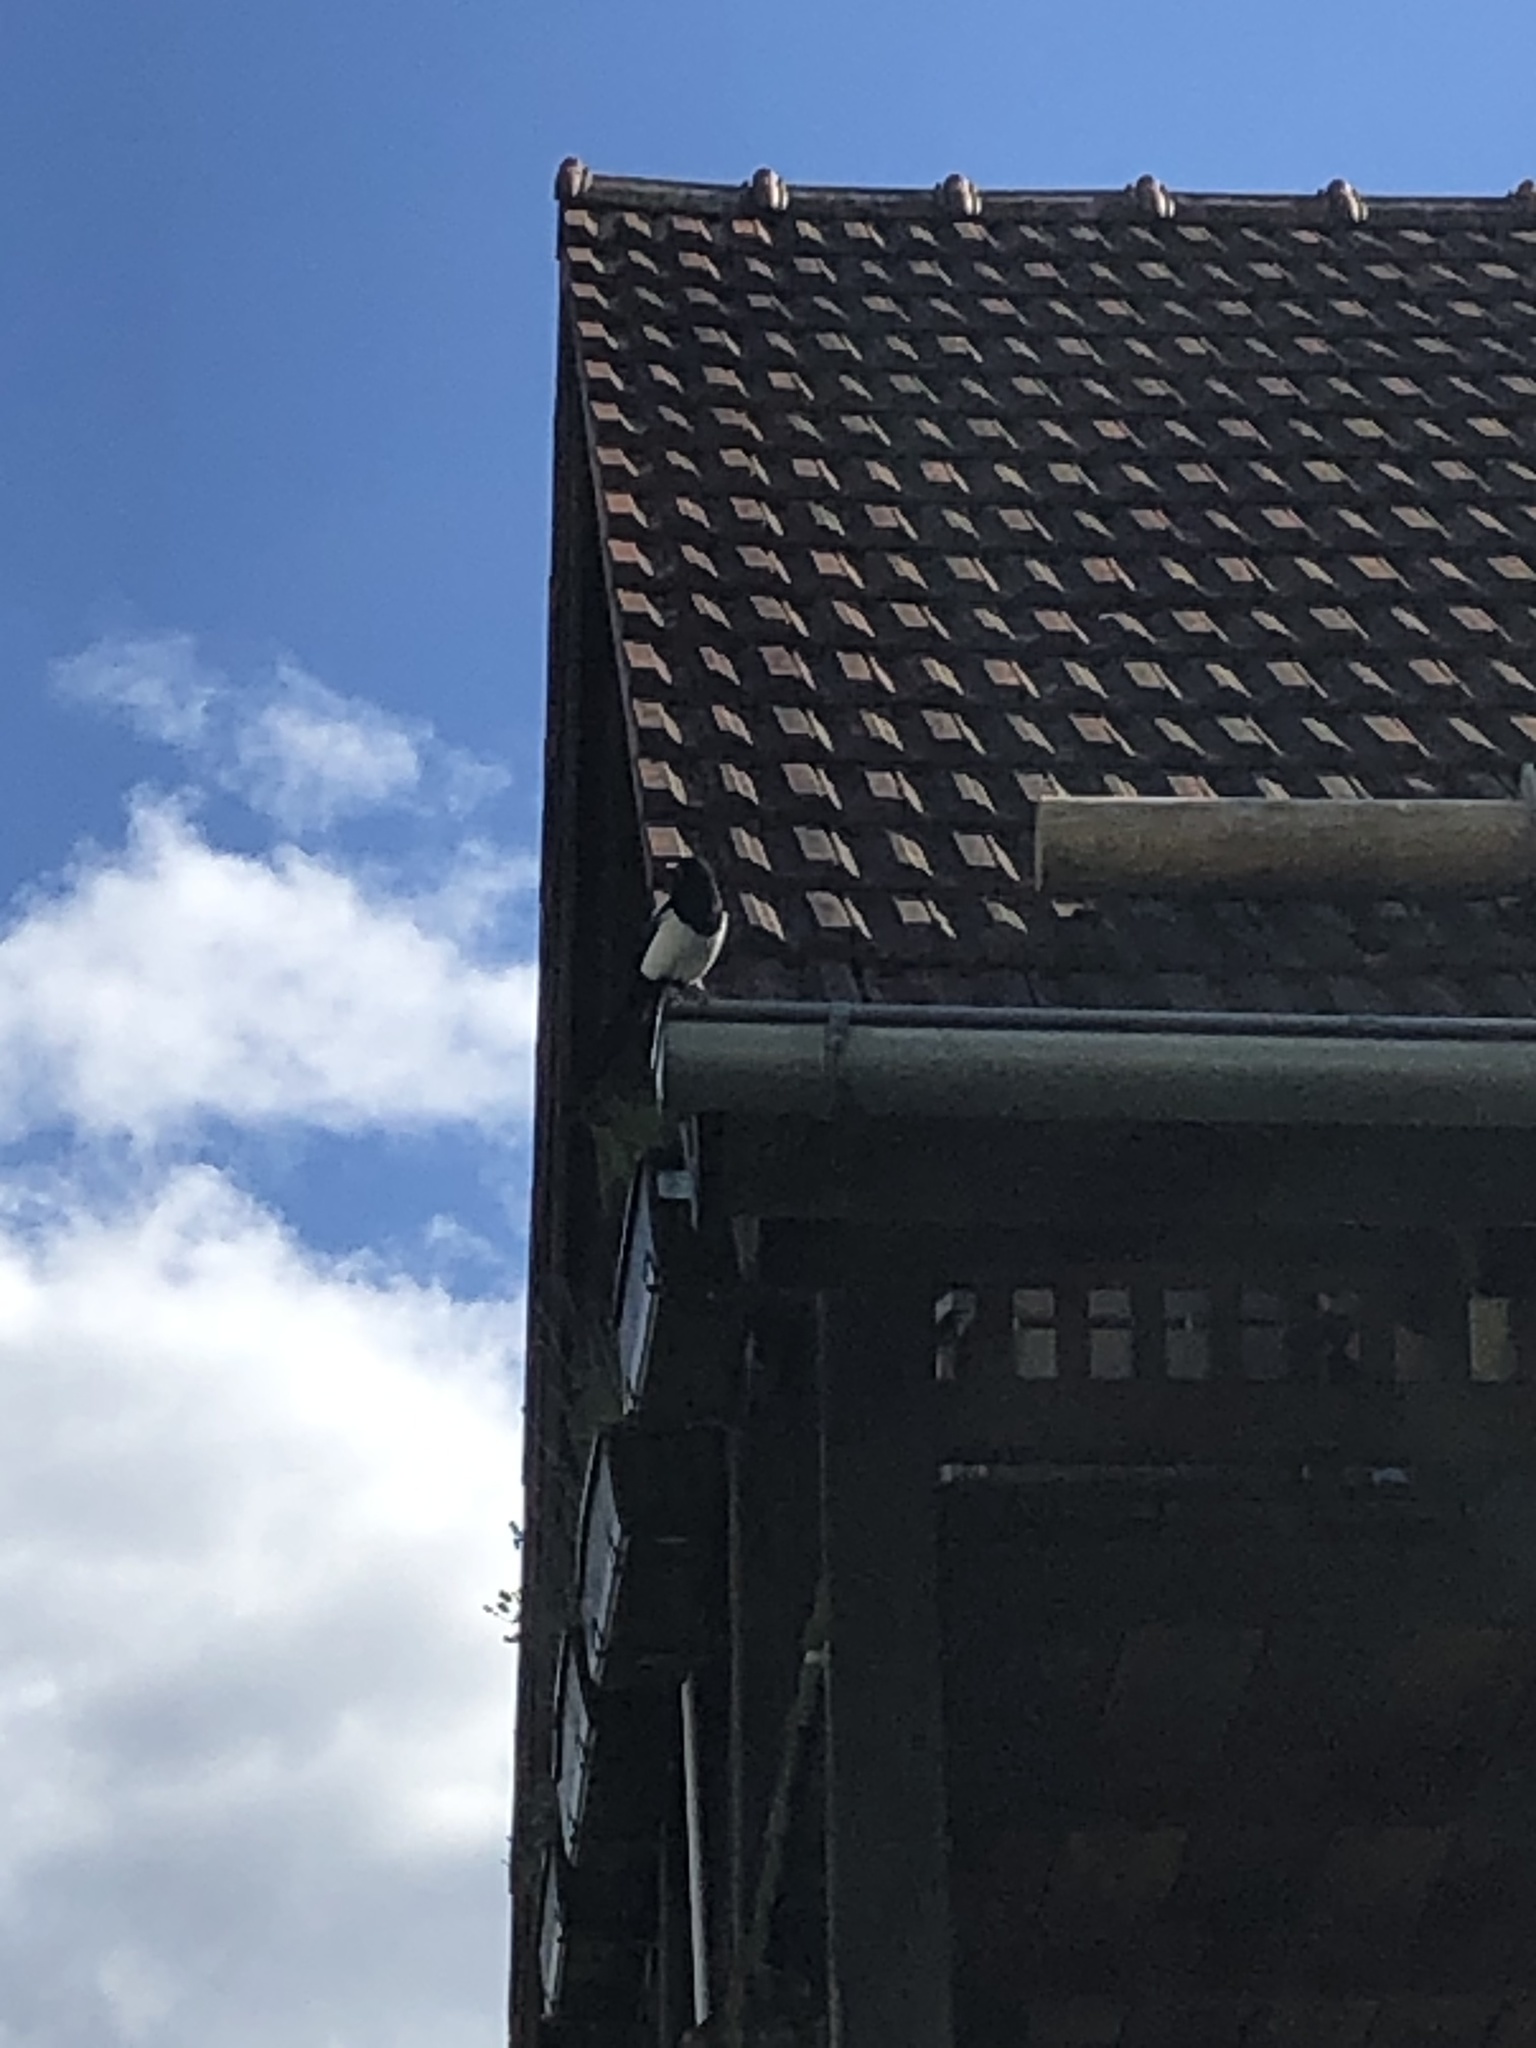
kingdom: Animalia
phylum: Chordata
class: Aves
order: Passeriformes
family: Corvidae
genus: Pica
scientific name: Pica pica
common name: Eurasian magpie
